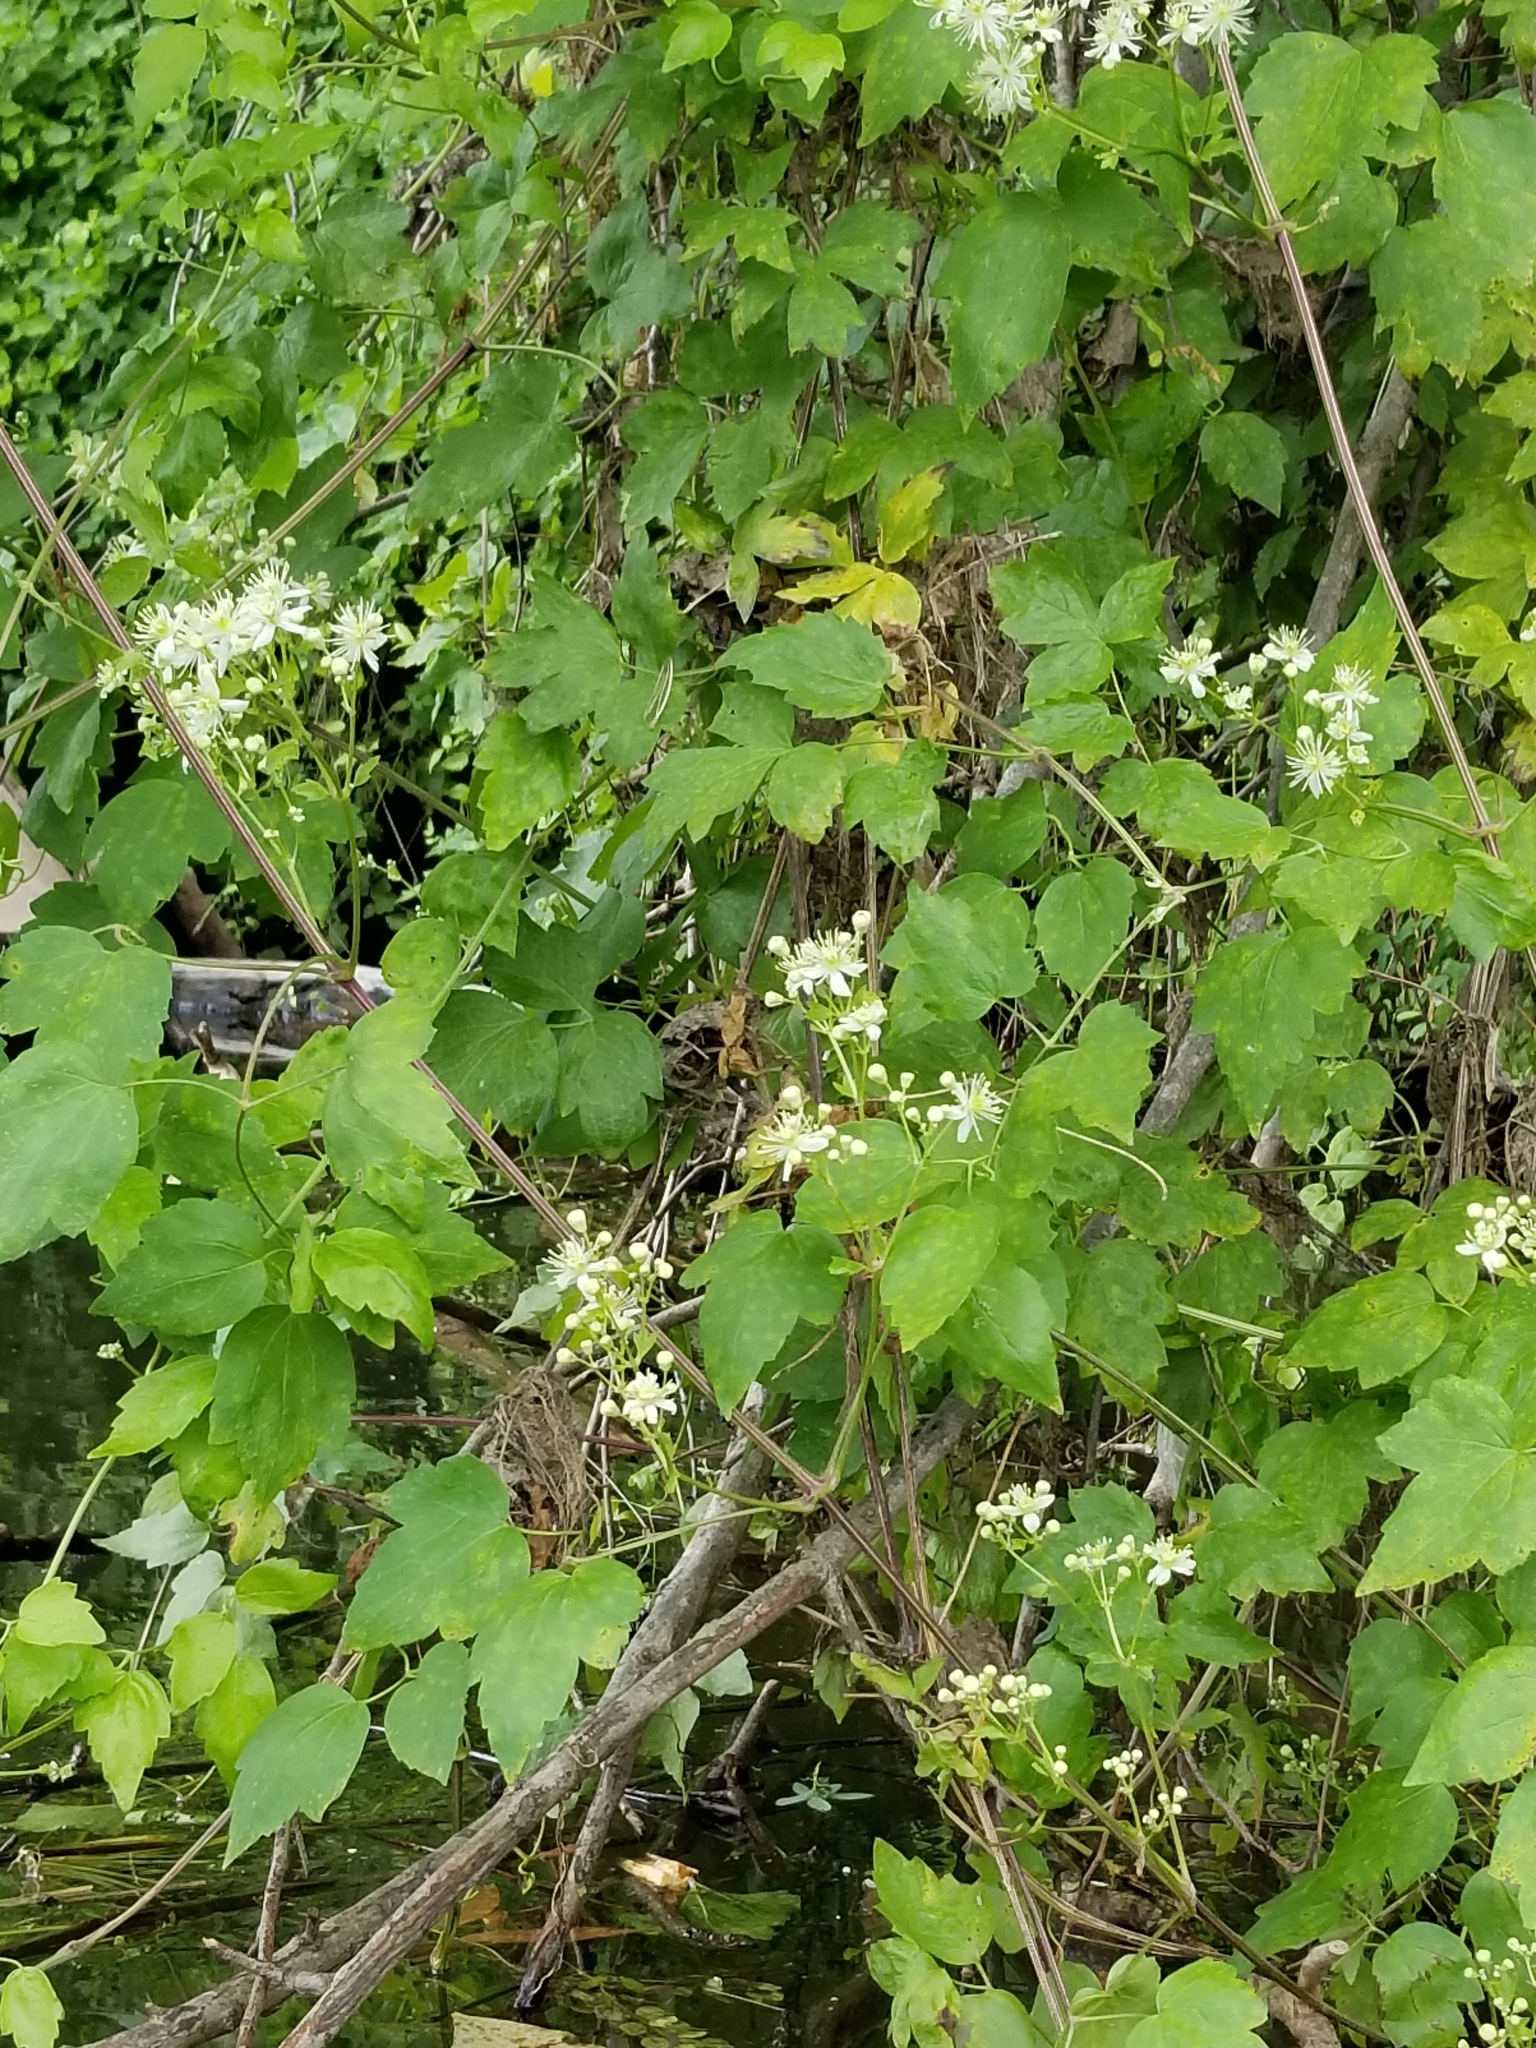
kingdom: Plantae
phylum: Tracheophyta
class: Magnoliopsida
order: Ranunculales
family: Ranunculaceae
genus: Clematis
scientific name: Clematis ligusticifolia
